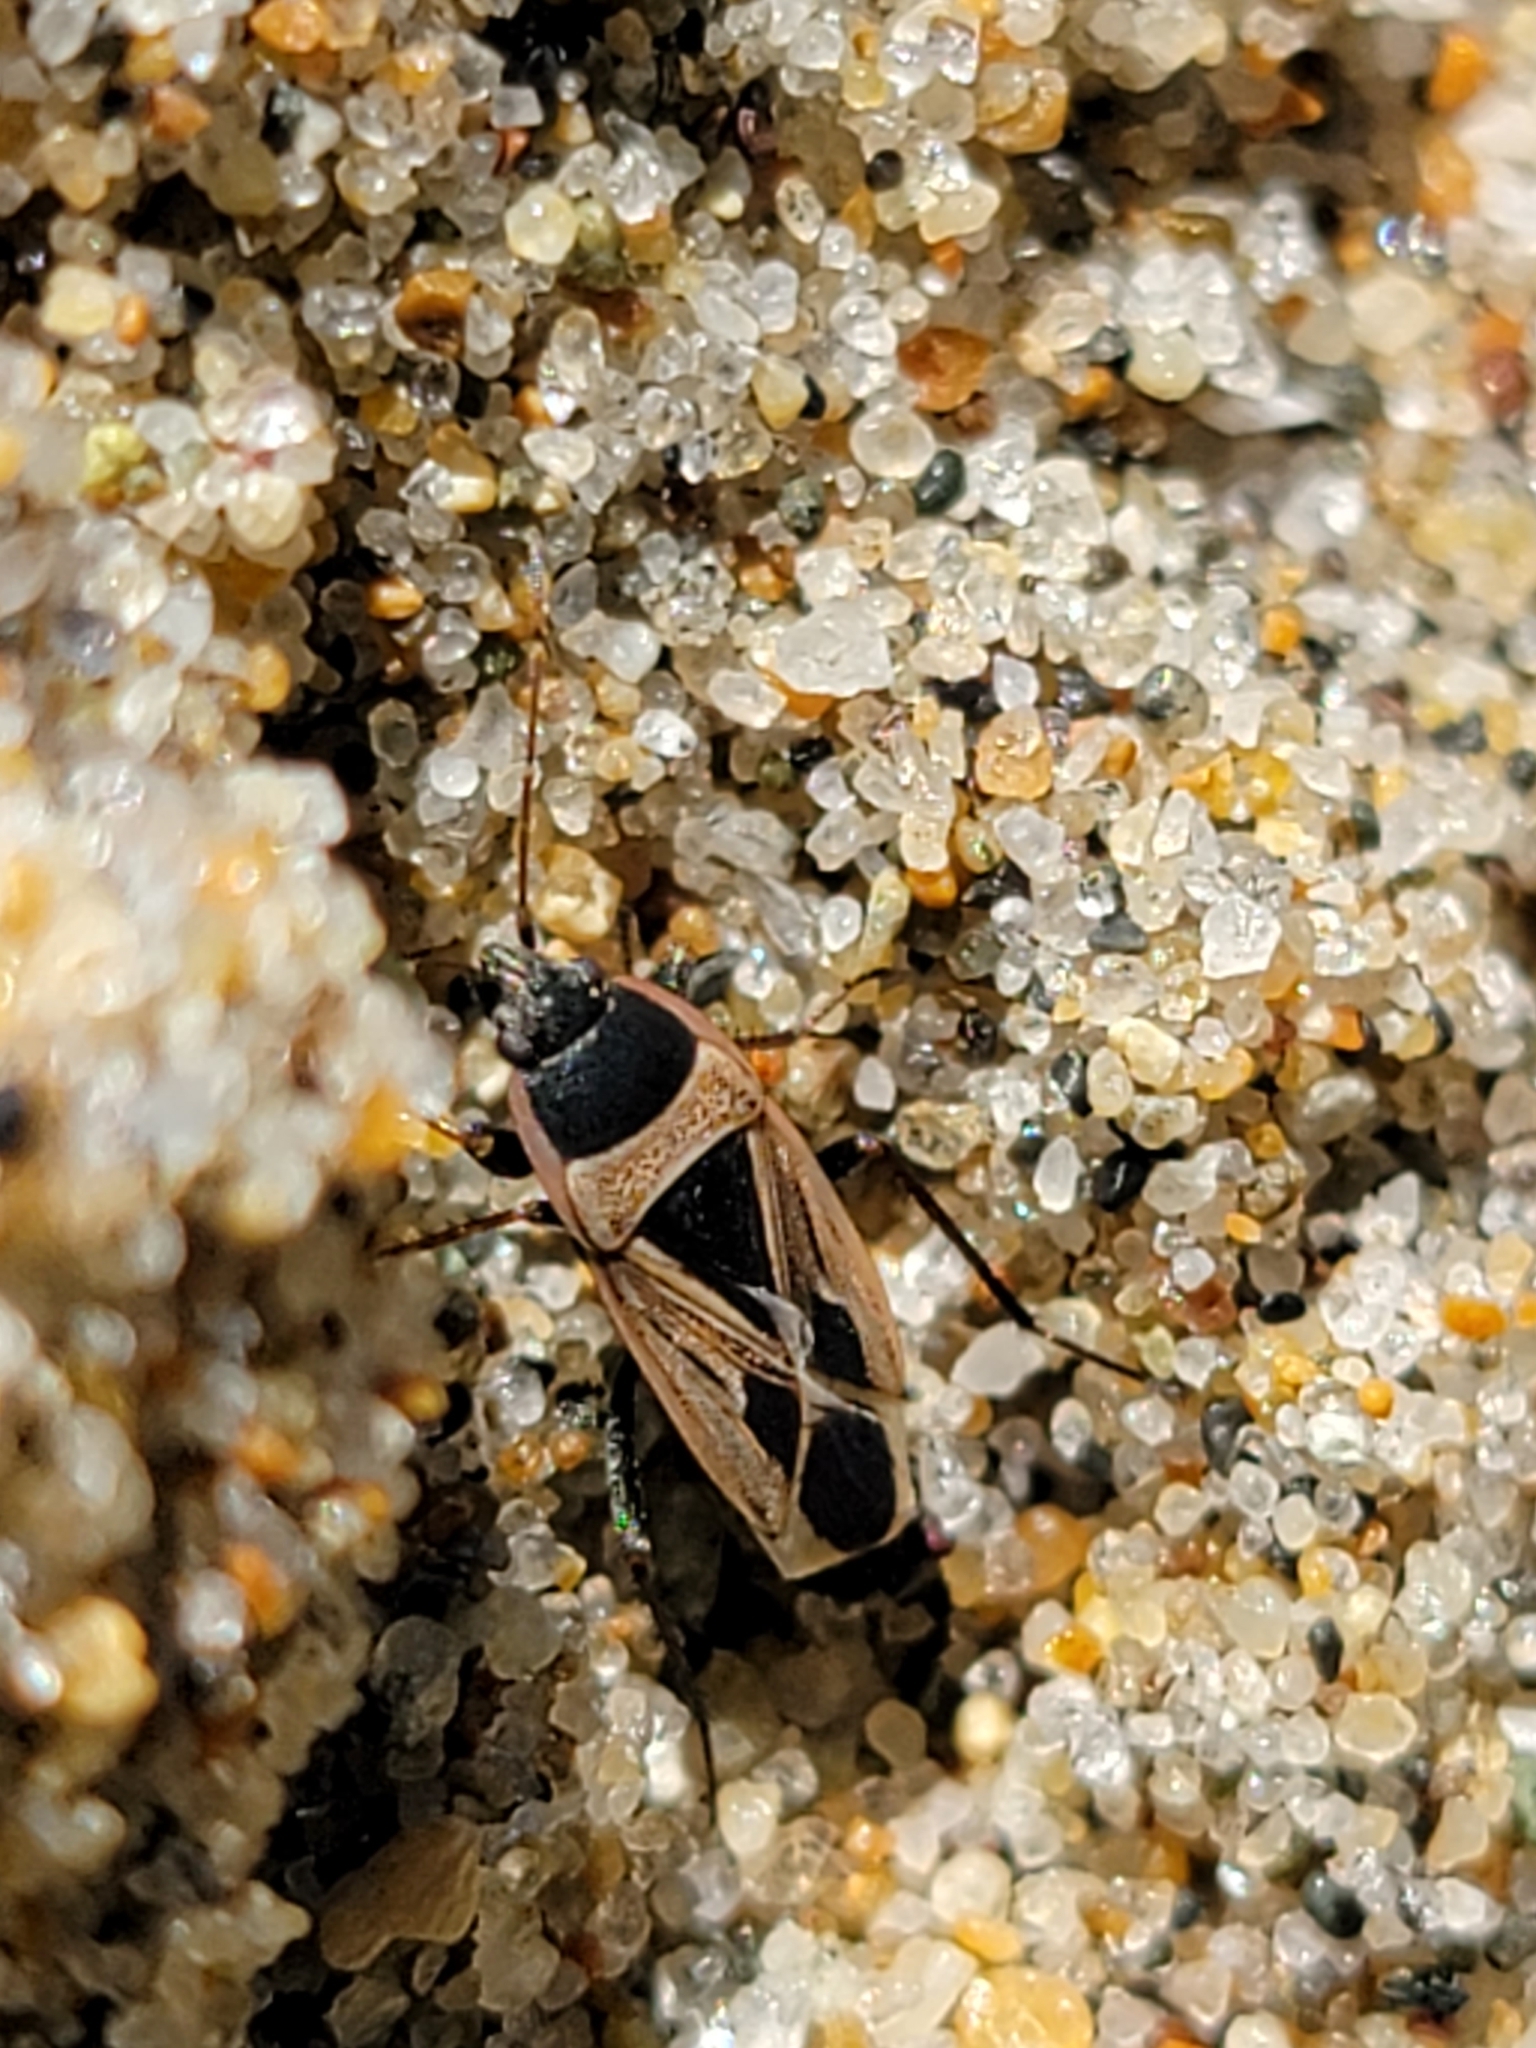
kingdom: Animalia
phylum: Arthropoda
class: Insecta
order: Hemiptera
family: Rhyparochromidae
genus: Xanthochilus
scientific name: Xanthochilus saturnius
